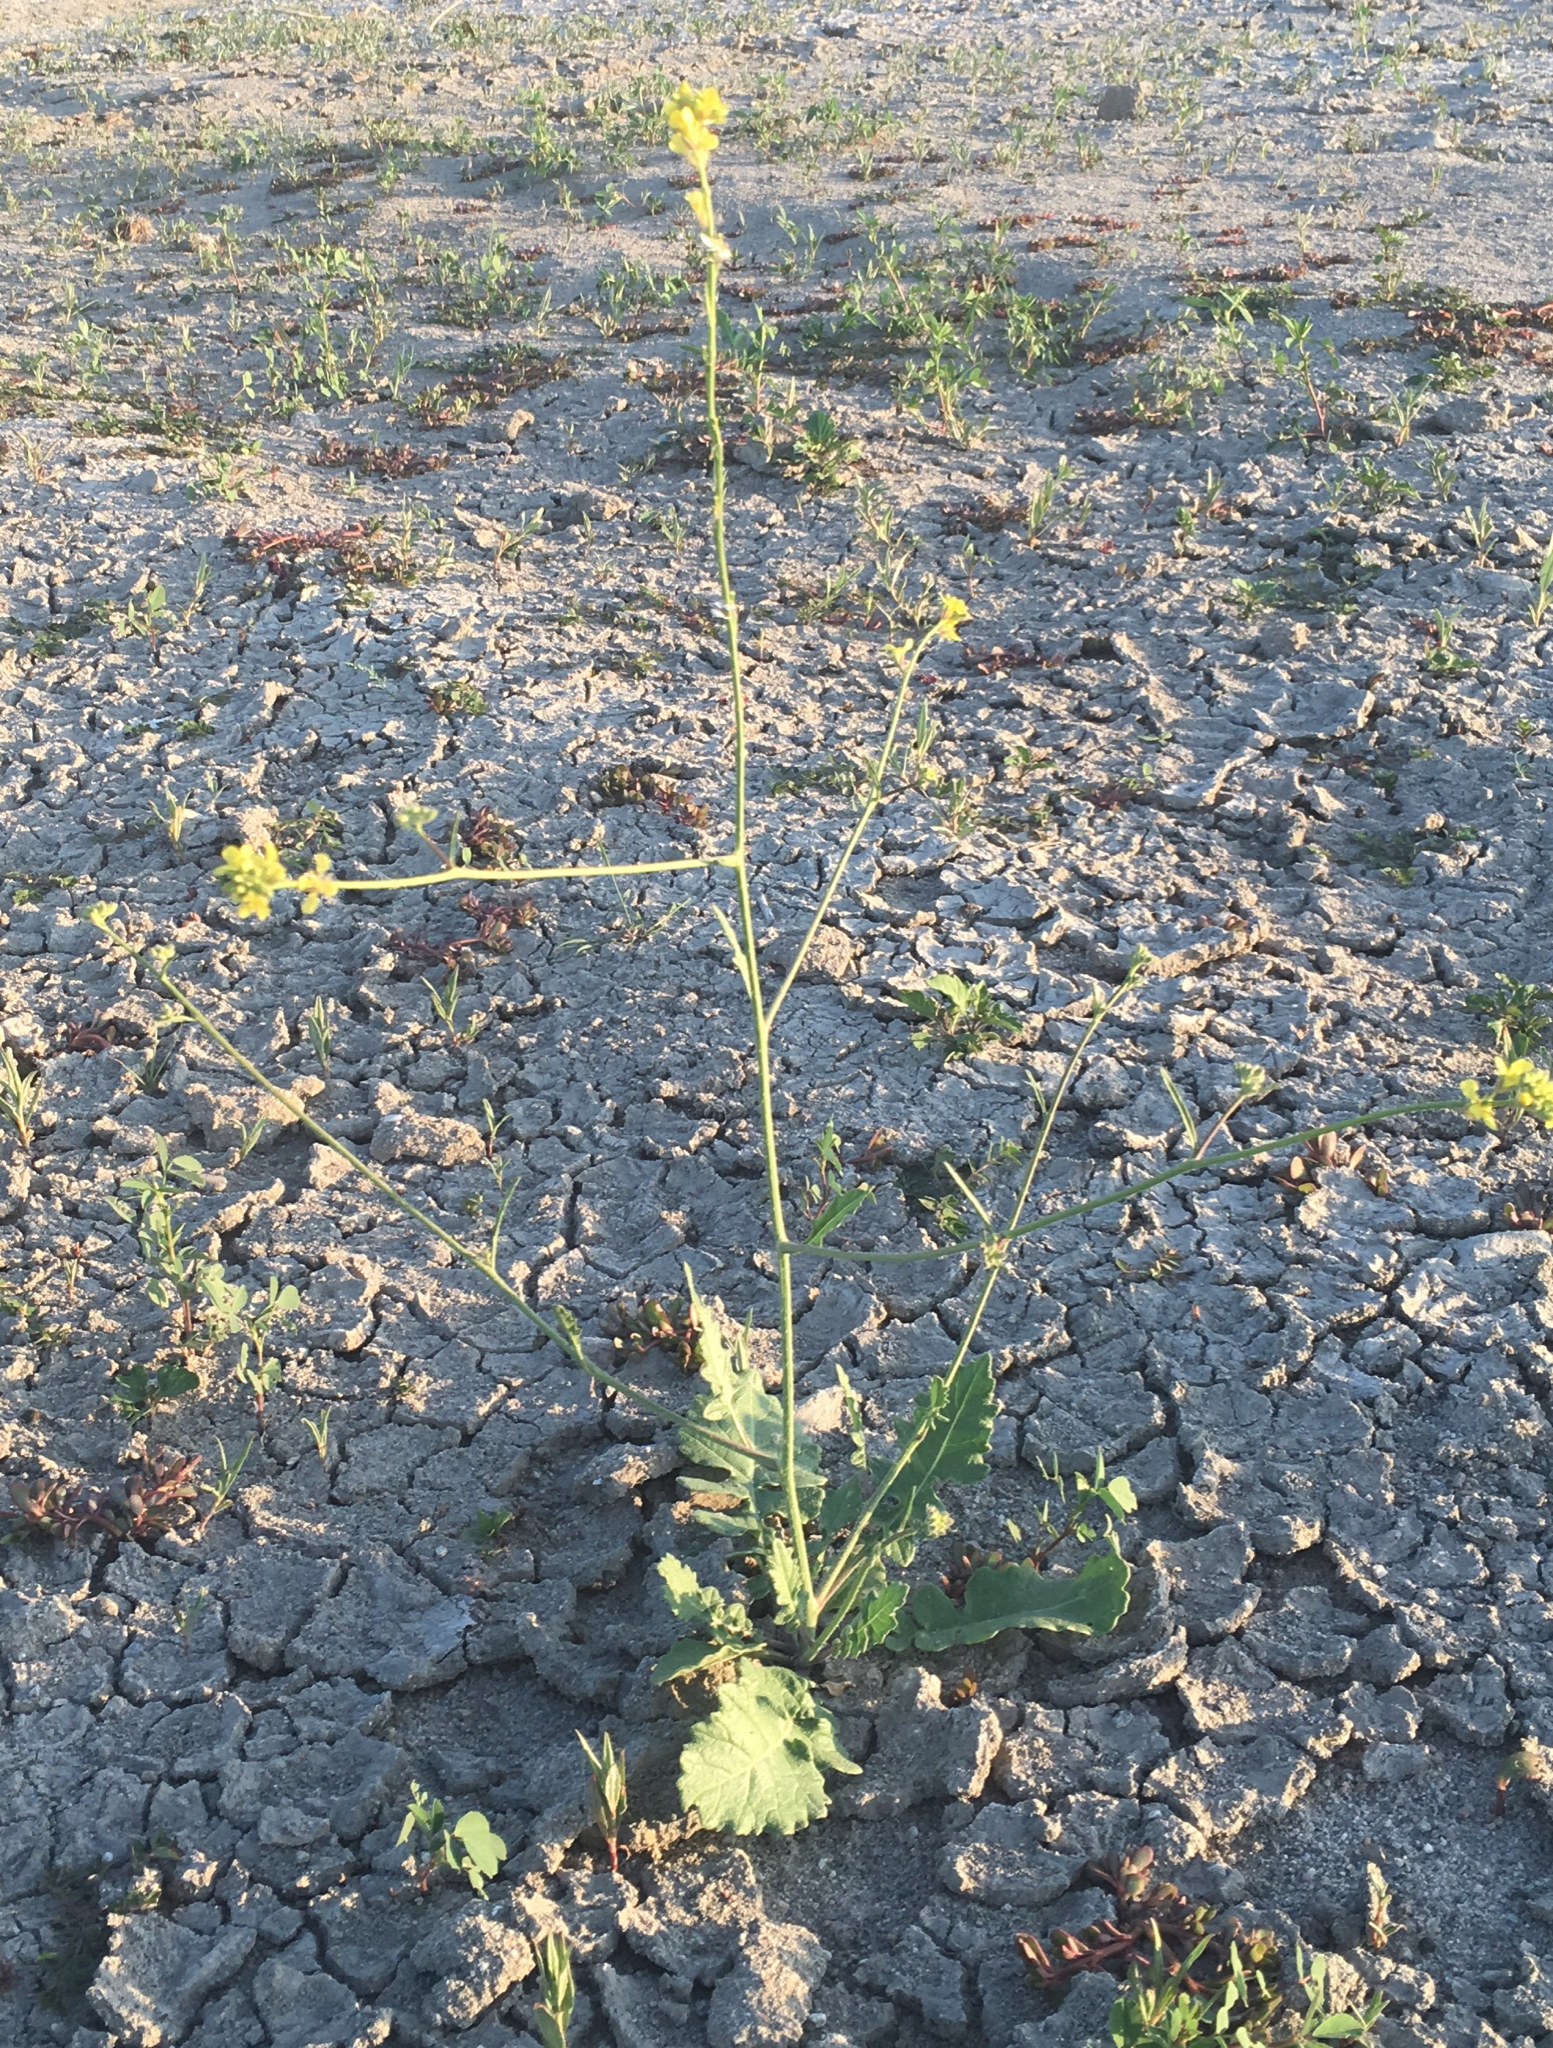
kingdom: Plantae
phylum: Tracheophyta
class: Magnoliopsida
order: Brassicales
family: Brassicaceae
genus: Hirschfeldia
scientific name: Hirschfeldia incana
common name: Hoary mustard
